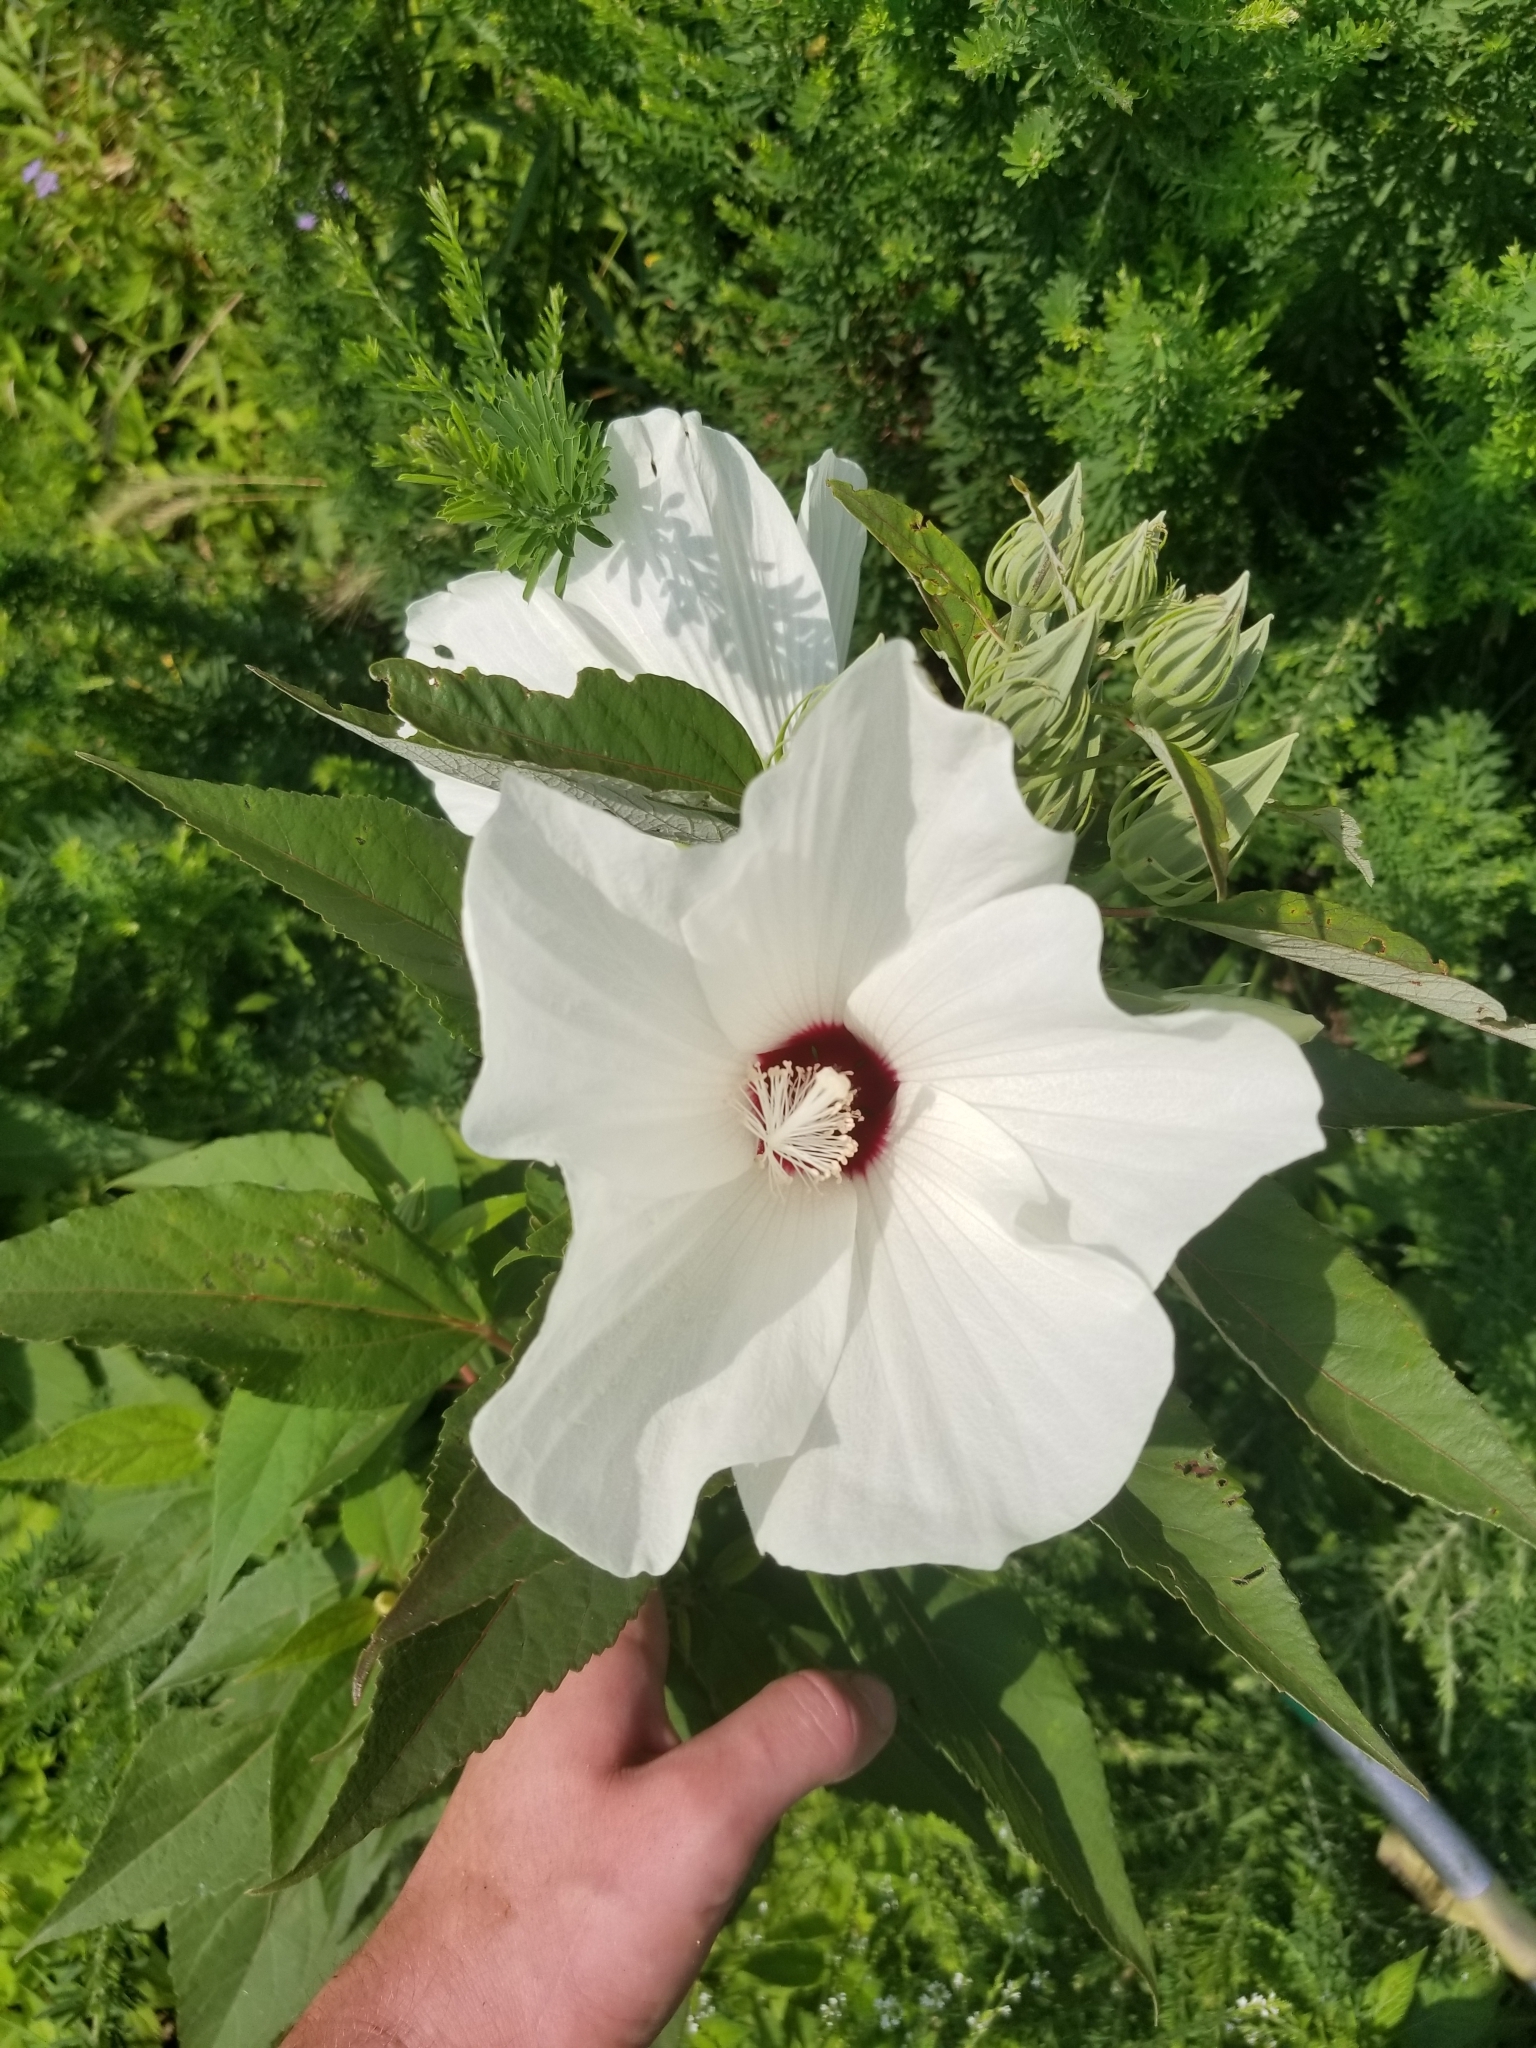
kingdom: Plantae
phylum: Tracheophyta
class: Magnoliopsida
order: Malvales
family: Malvaceae
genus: Hibiscus
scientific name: Hibiscus moscheutos
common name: Common rose-mallow
